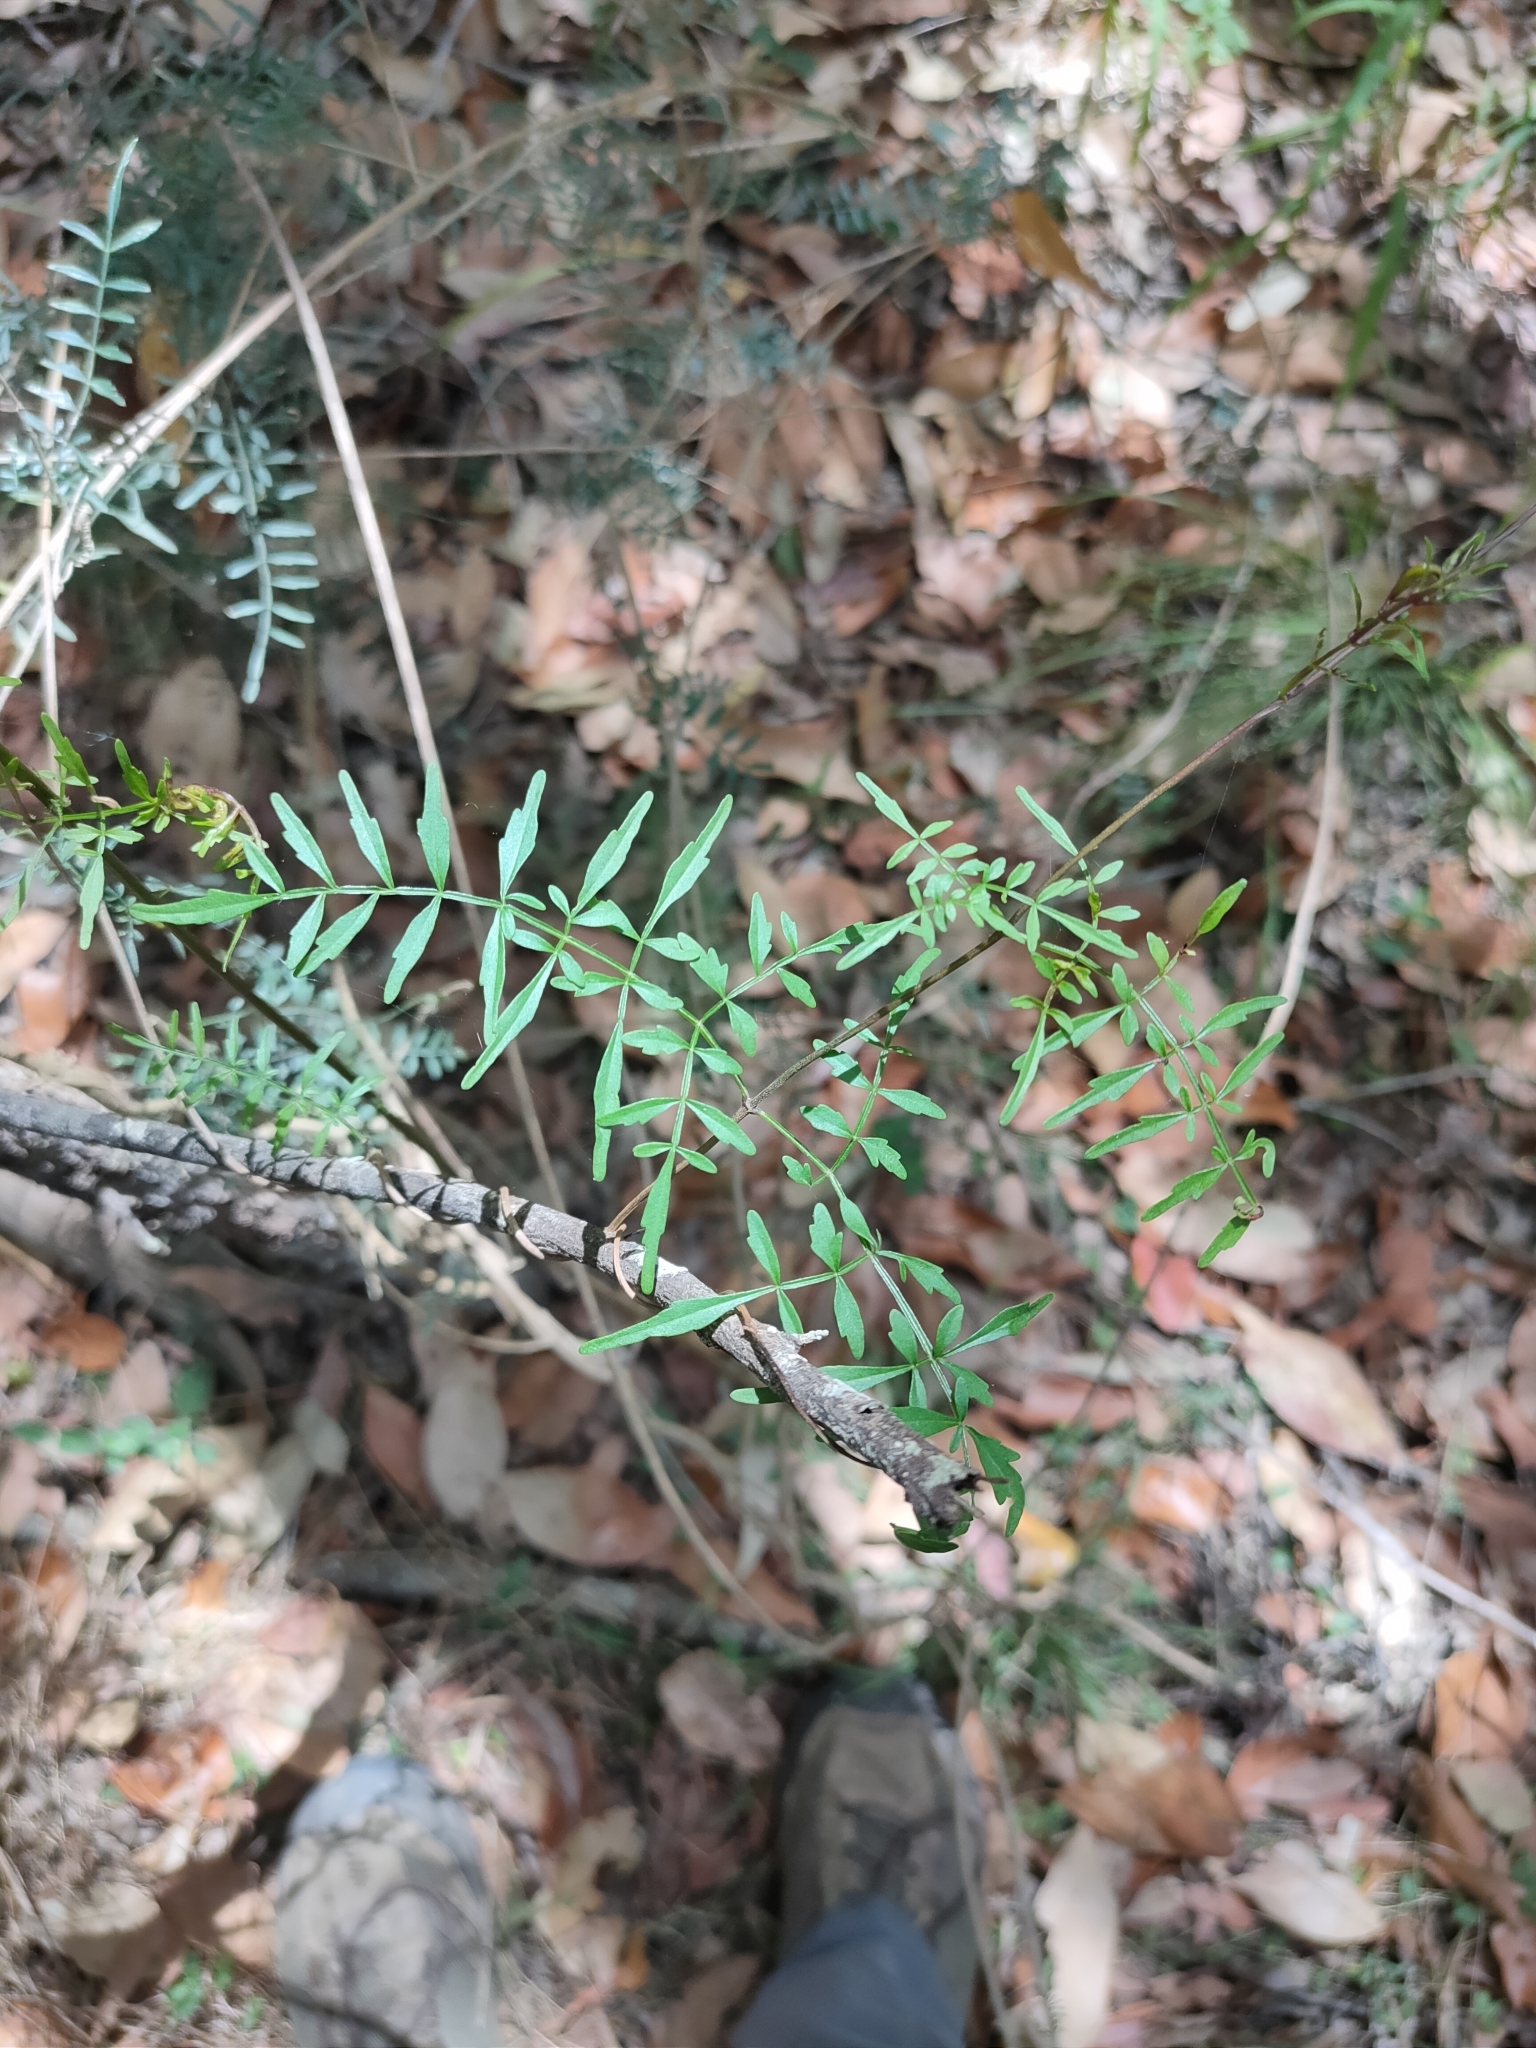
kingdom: Plantae
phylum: Tracheophyta
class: Magnoliopsida
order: Lamiales
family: Bignoniaceae
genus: Pandorea
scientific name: Pandorea pandorana
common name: Wonga-wonga-vine
